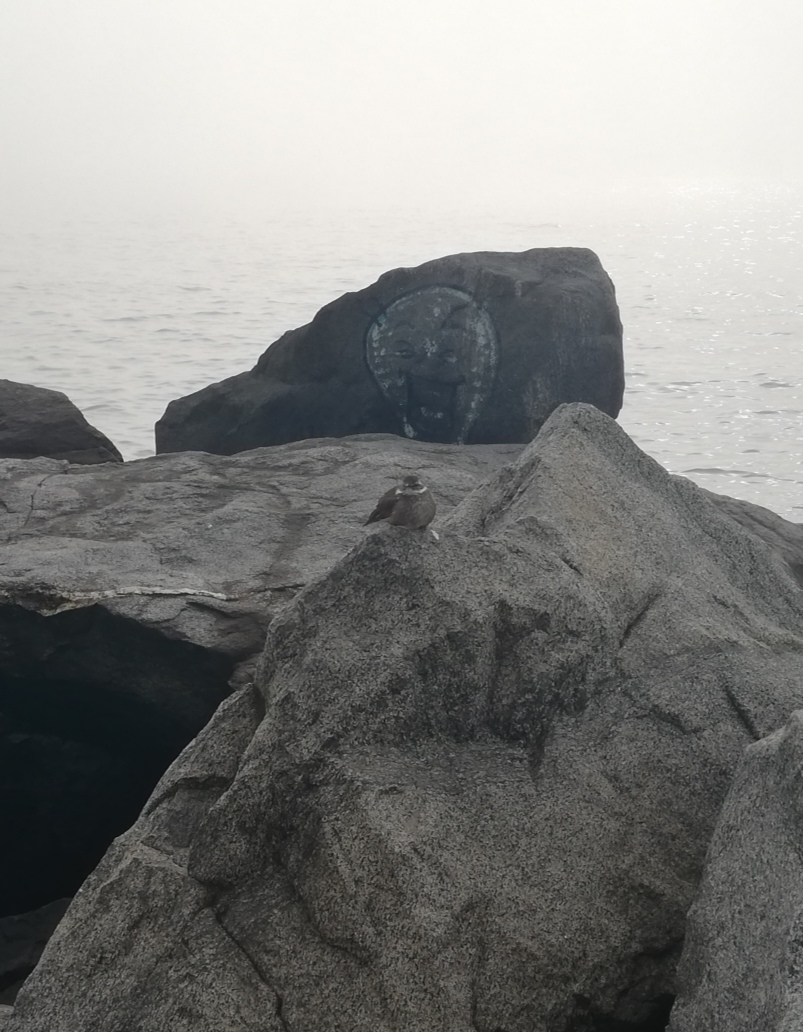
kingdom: Animalia
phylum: Chordata
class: Aves
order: Passeriformes
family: Furnariidae
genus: Cinclodes
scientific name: Cinclodes patagonicus
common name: Dark-bellied cinclodes
